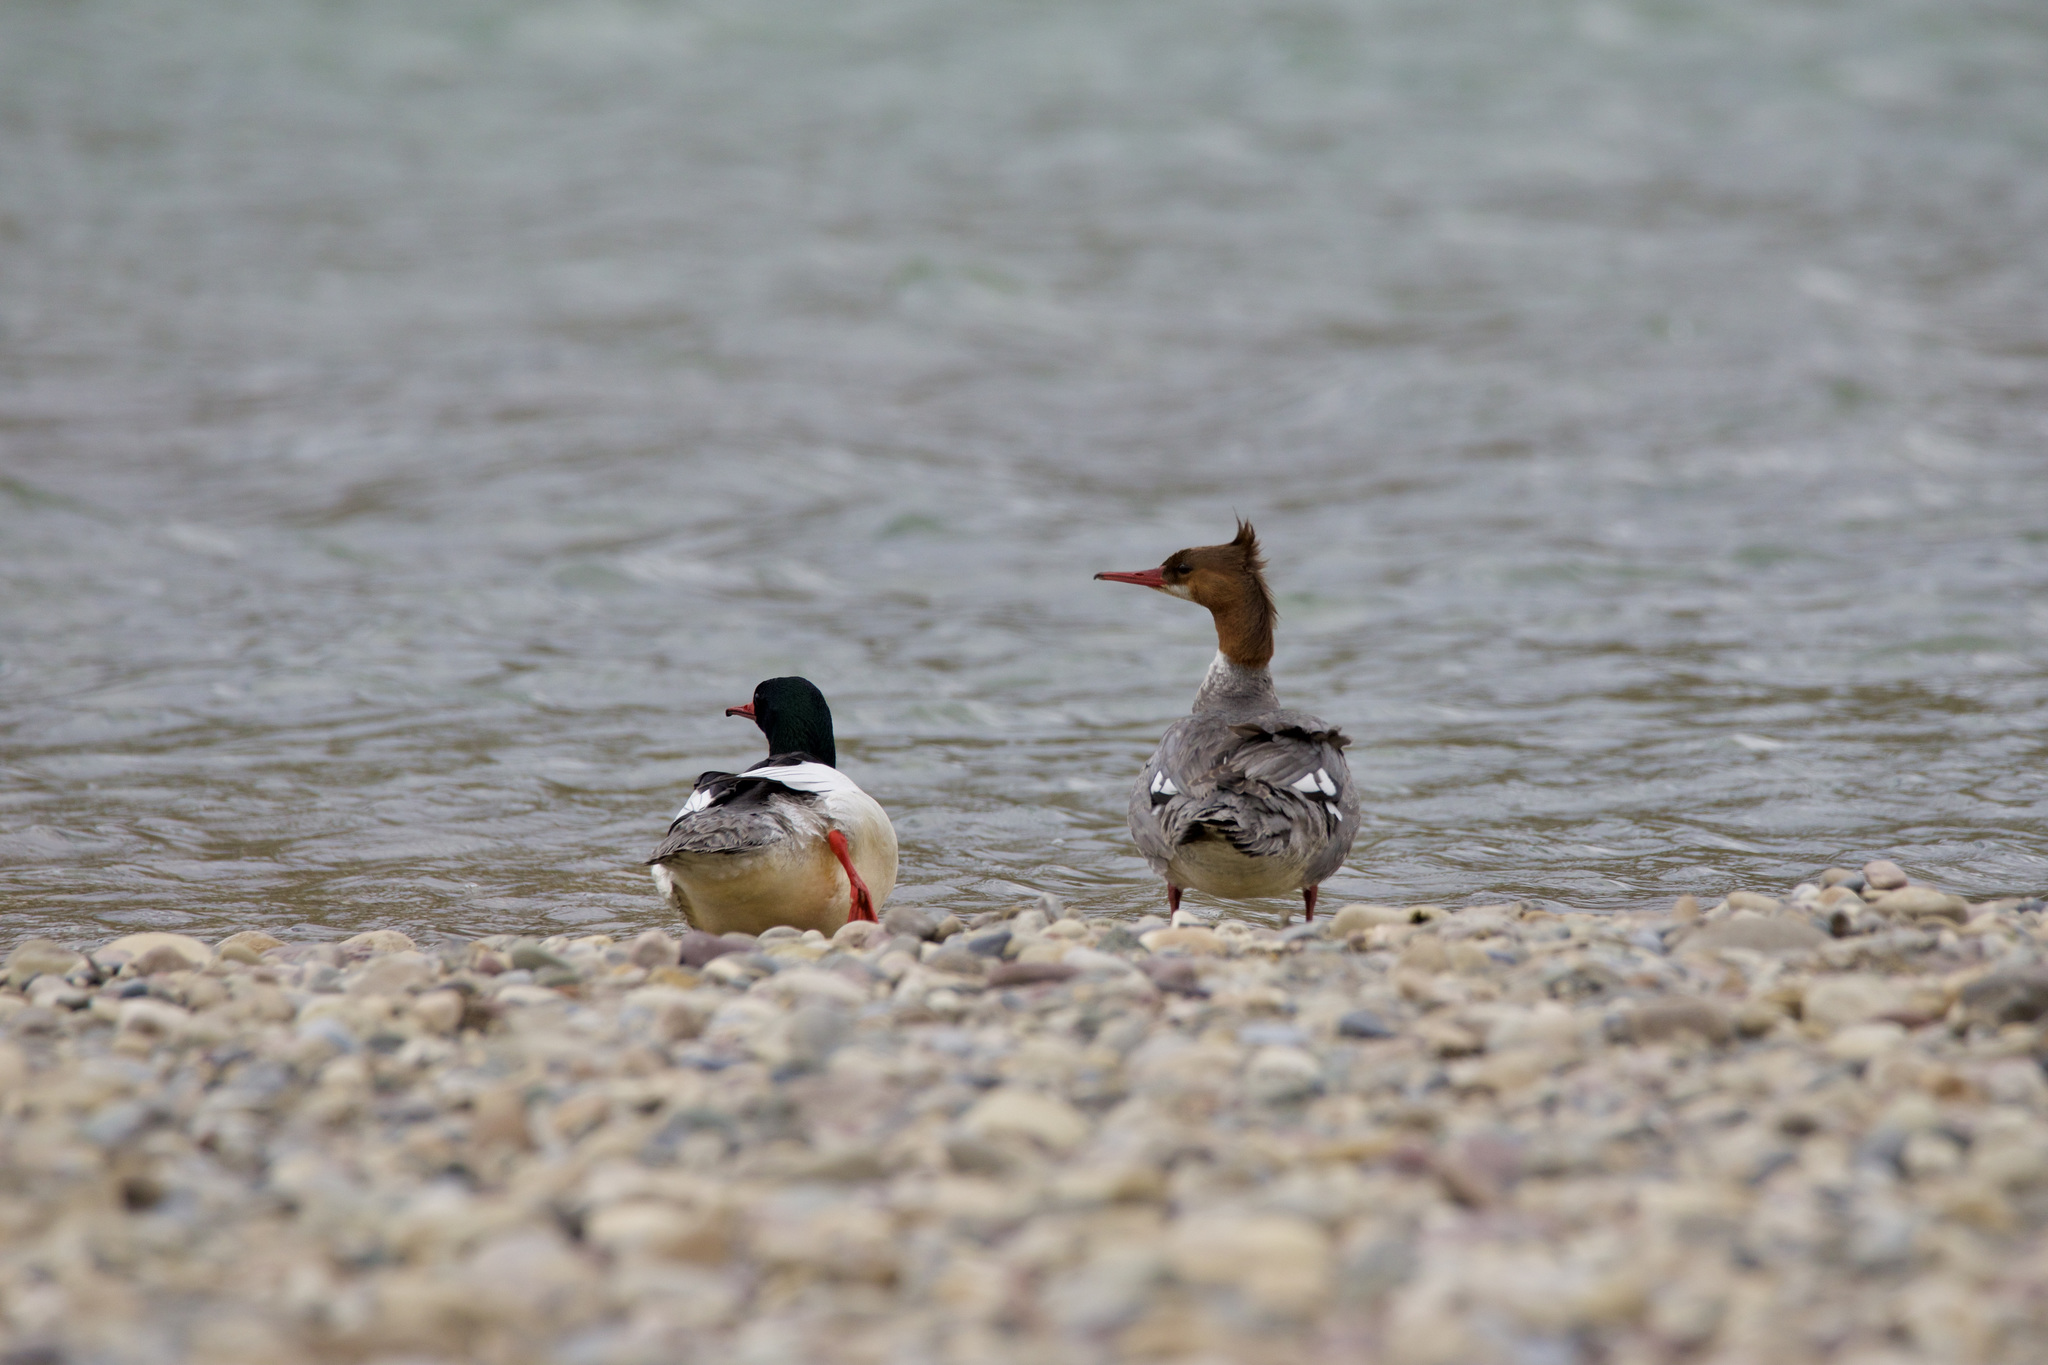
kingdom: Animalia
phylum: Chordata
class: Aves
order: Anseriformes
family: Anatidae
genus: Mergus
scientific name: Mergus merganser
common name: Common merganser
